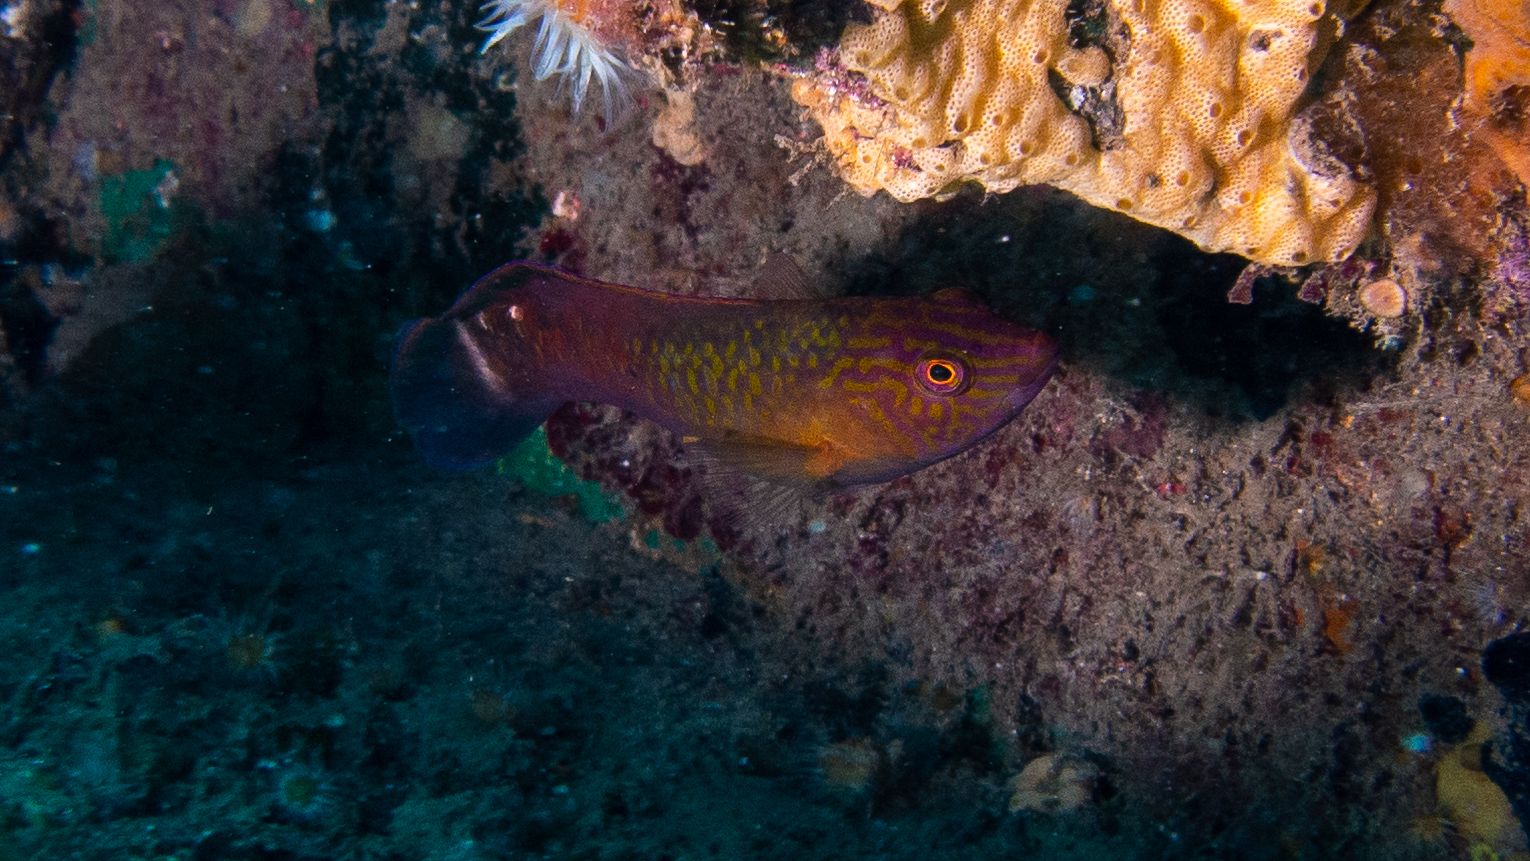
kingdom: Animalia
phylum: Chordata
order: Perciformes
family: Labridae
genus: Austrolabrus
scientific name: Austrolabrus maculatus
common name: Black-spotted parrotfish
